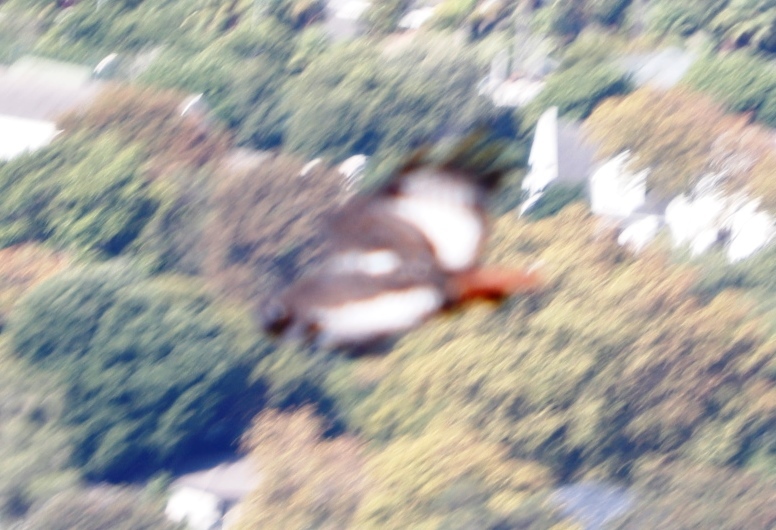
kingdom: Animalia
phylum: Chordata
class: Aves
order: Accipitriformes
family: Accipitridae
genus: Buteo
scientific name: Buteo rufofuscus
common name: Jackal buzzard
